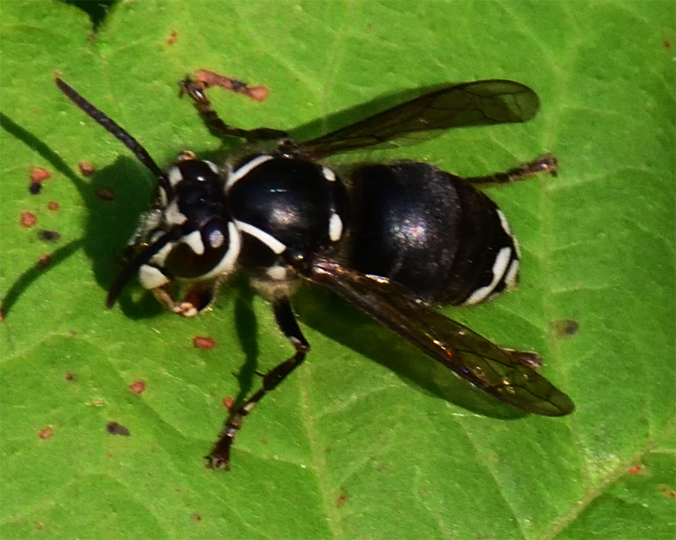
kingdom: Animalia
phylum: Arthropoda
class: Insecta
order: Hymenoptera
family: Vespidae
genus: Dolichovespula
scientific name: Dolichovespula maculata
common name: Bald-faced hornet
